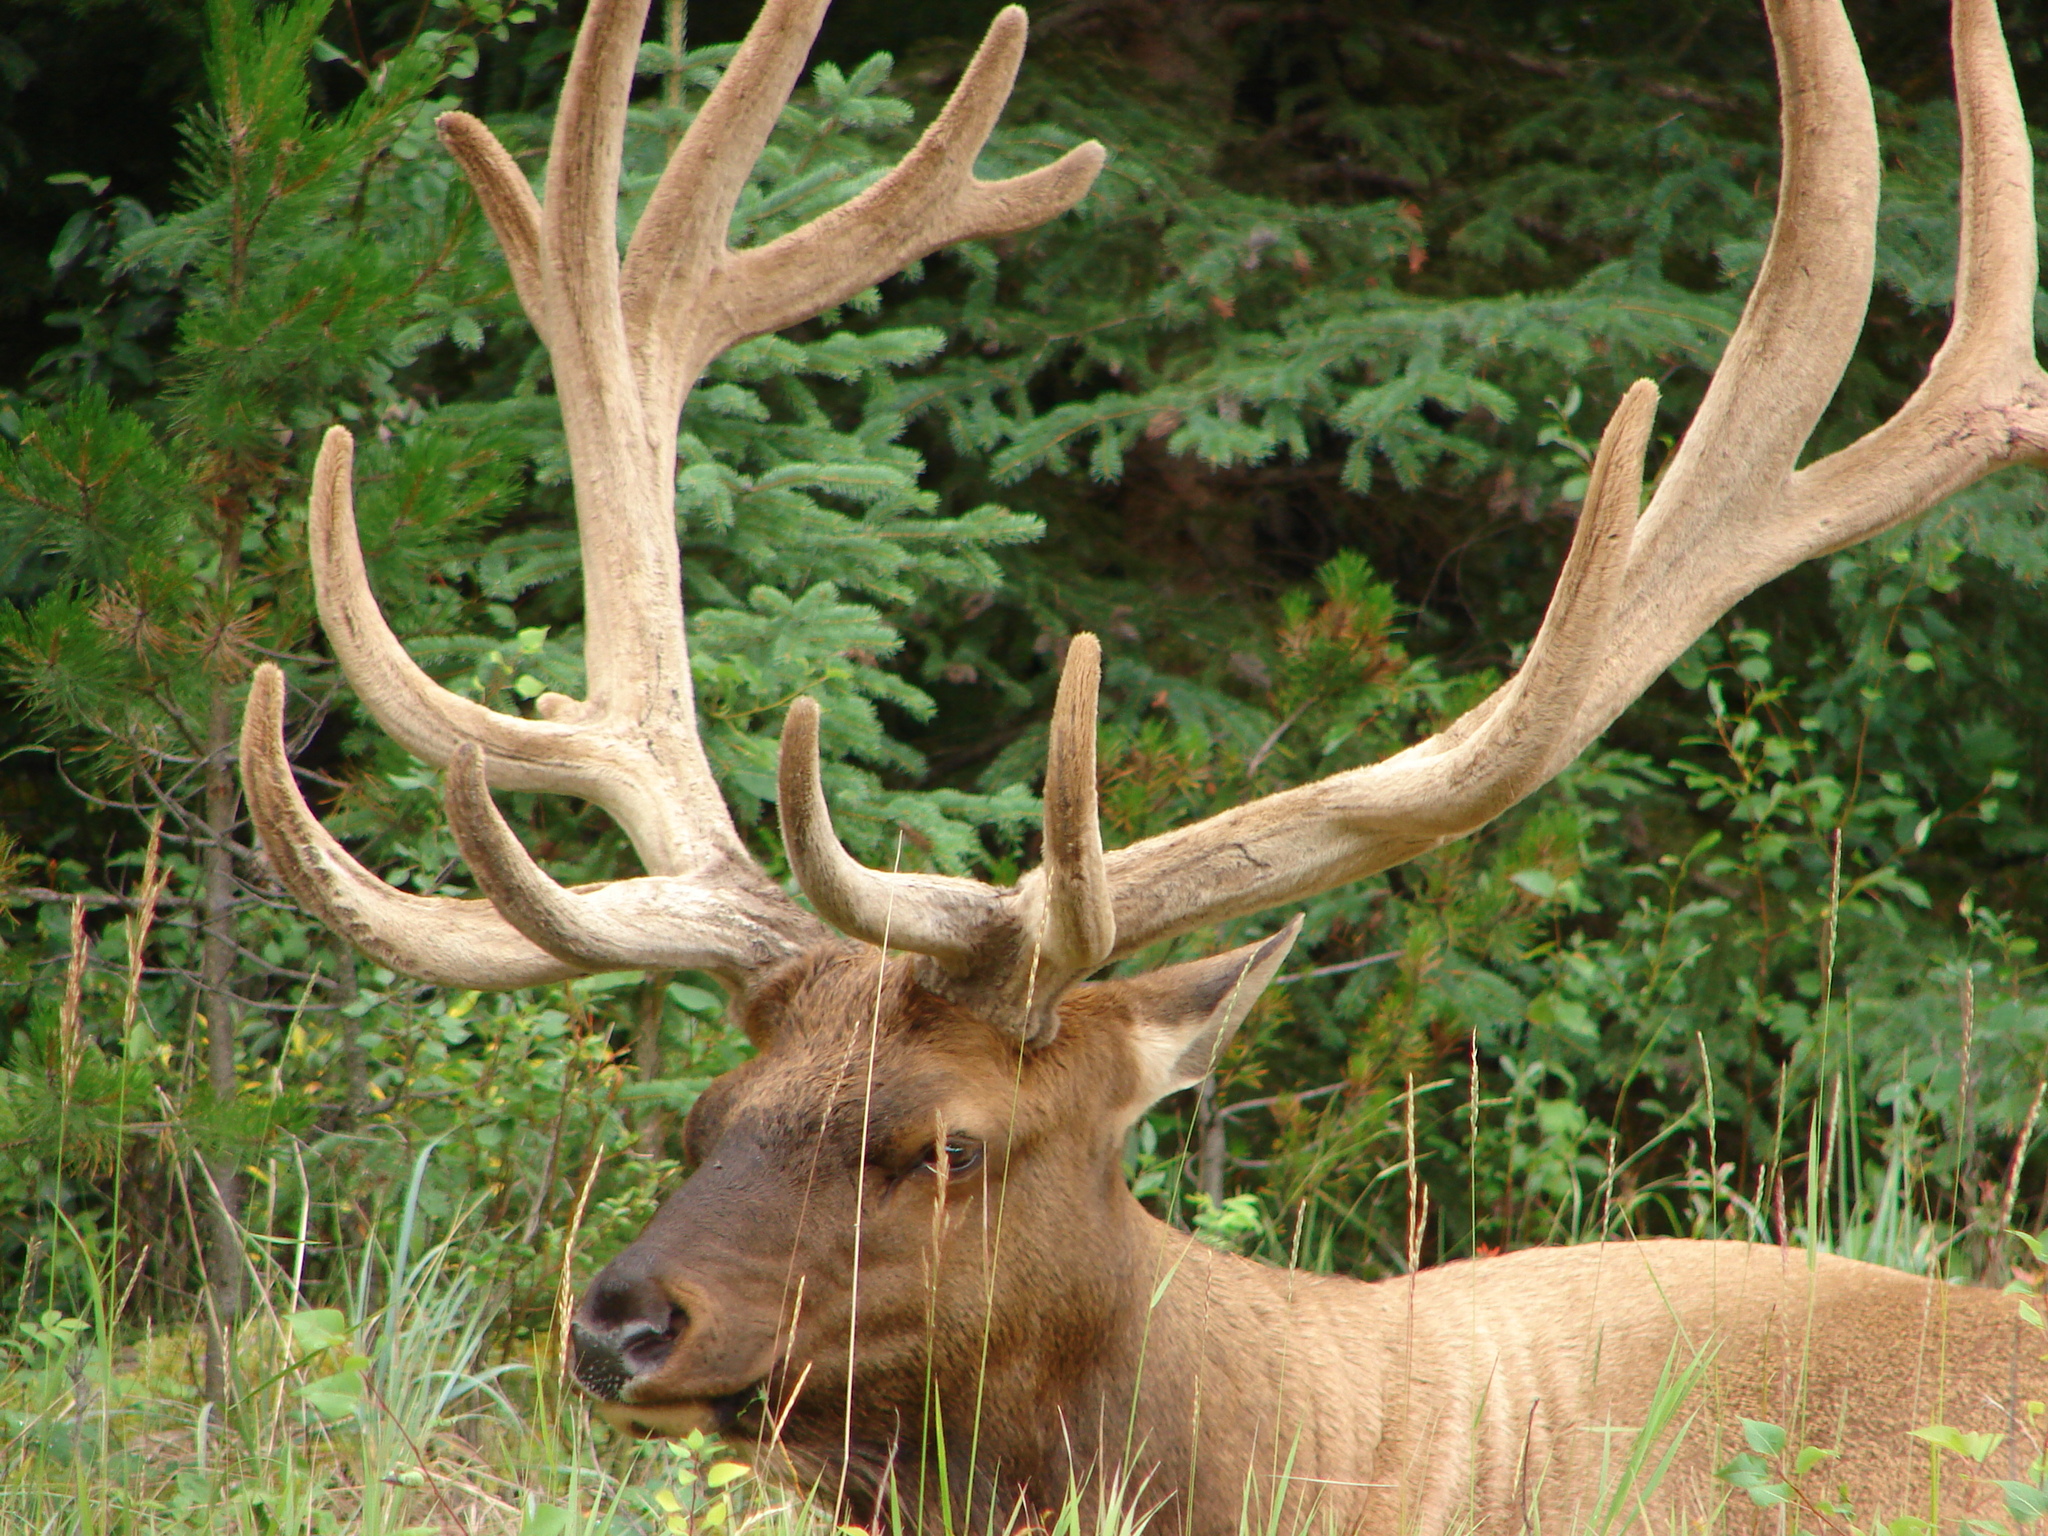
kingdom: Animalia
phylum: Chordata
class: Mammalia
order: Artiodactyla
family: Cervidae
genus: Cervus
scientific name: Cervus elaphus
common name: Red deer
